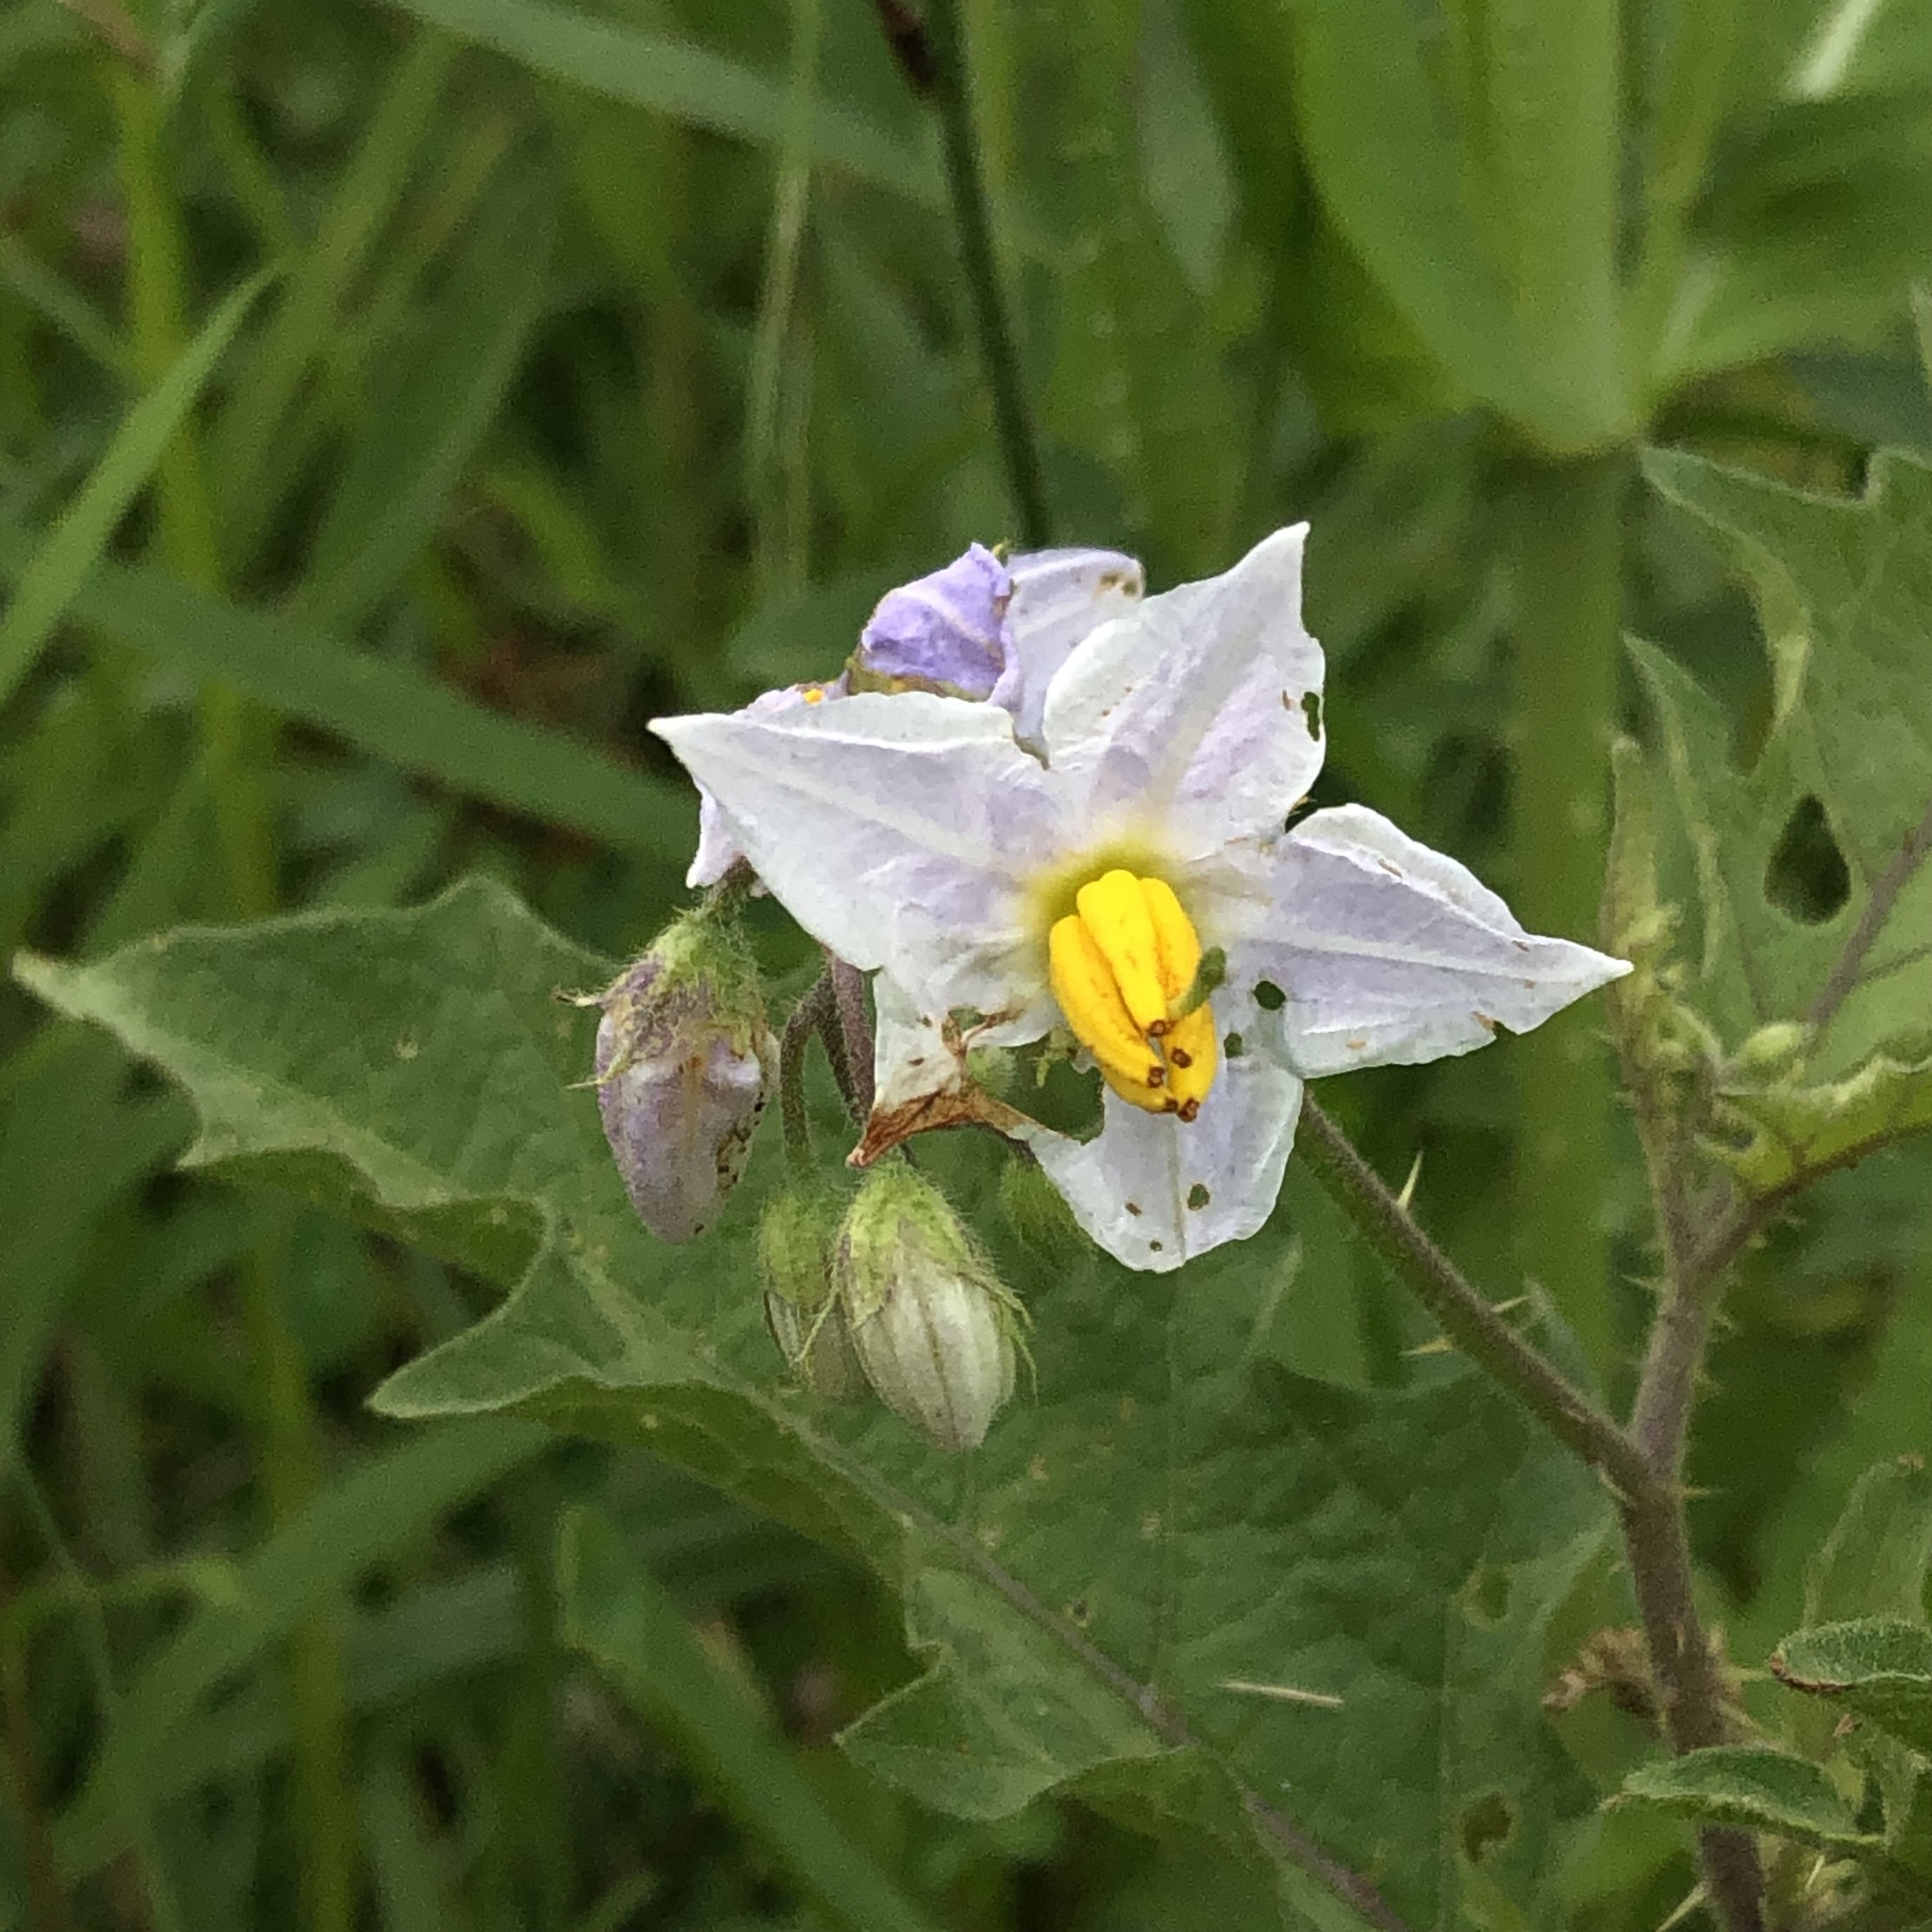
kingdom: Plantae
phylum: Tracheophyta
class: Magnoliopsida
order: Solanales
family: Solanaceae
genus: Solanum
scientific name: Solanum carolinense
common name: Horse-nettle
